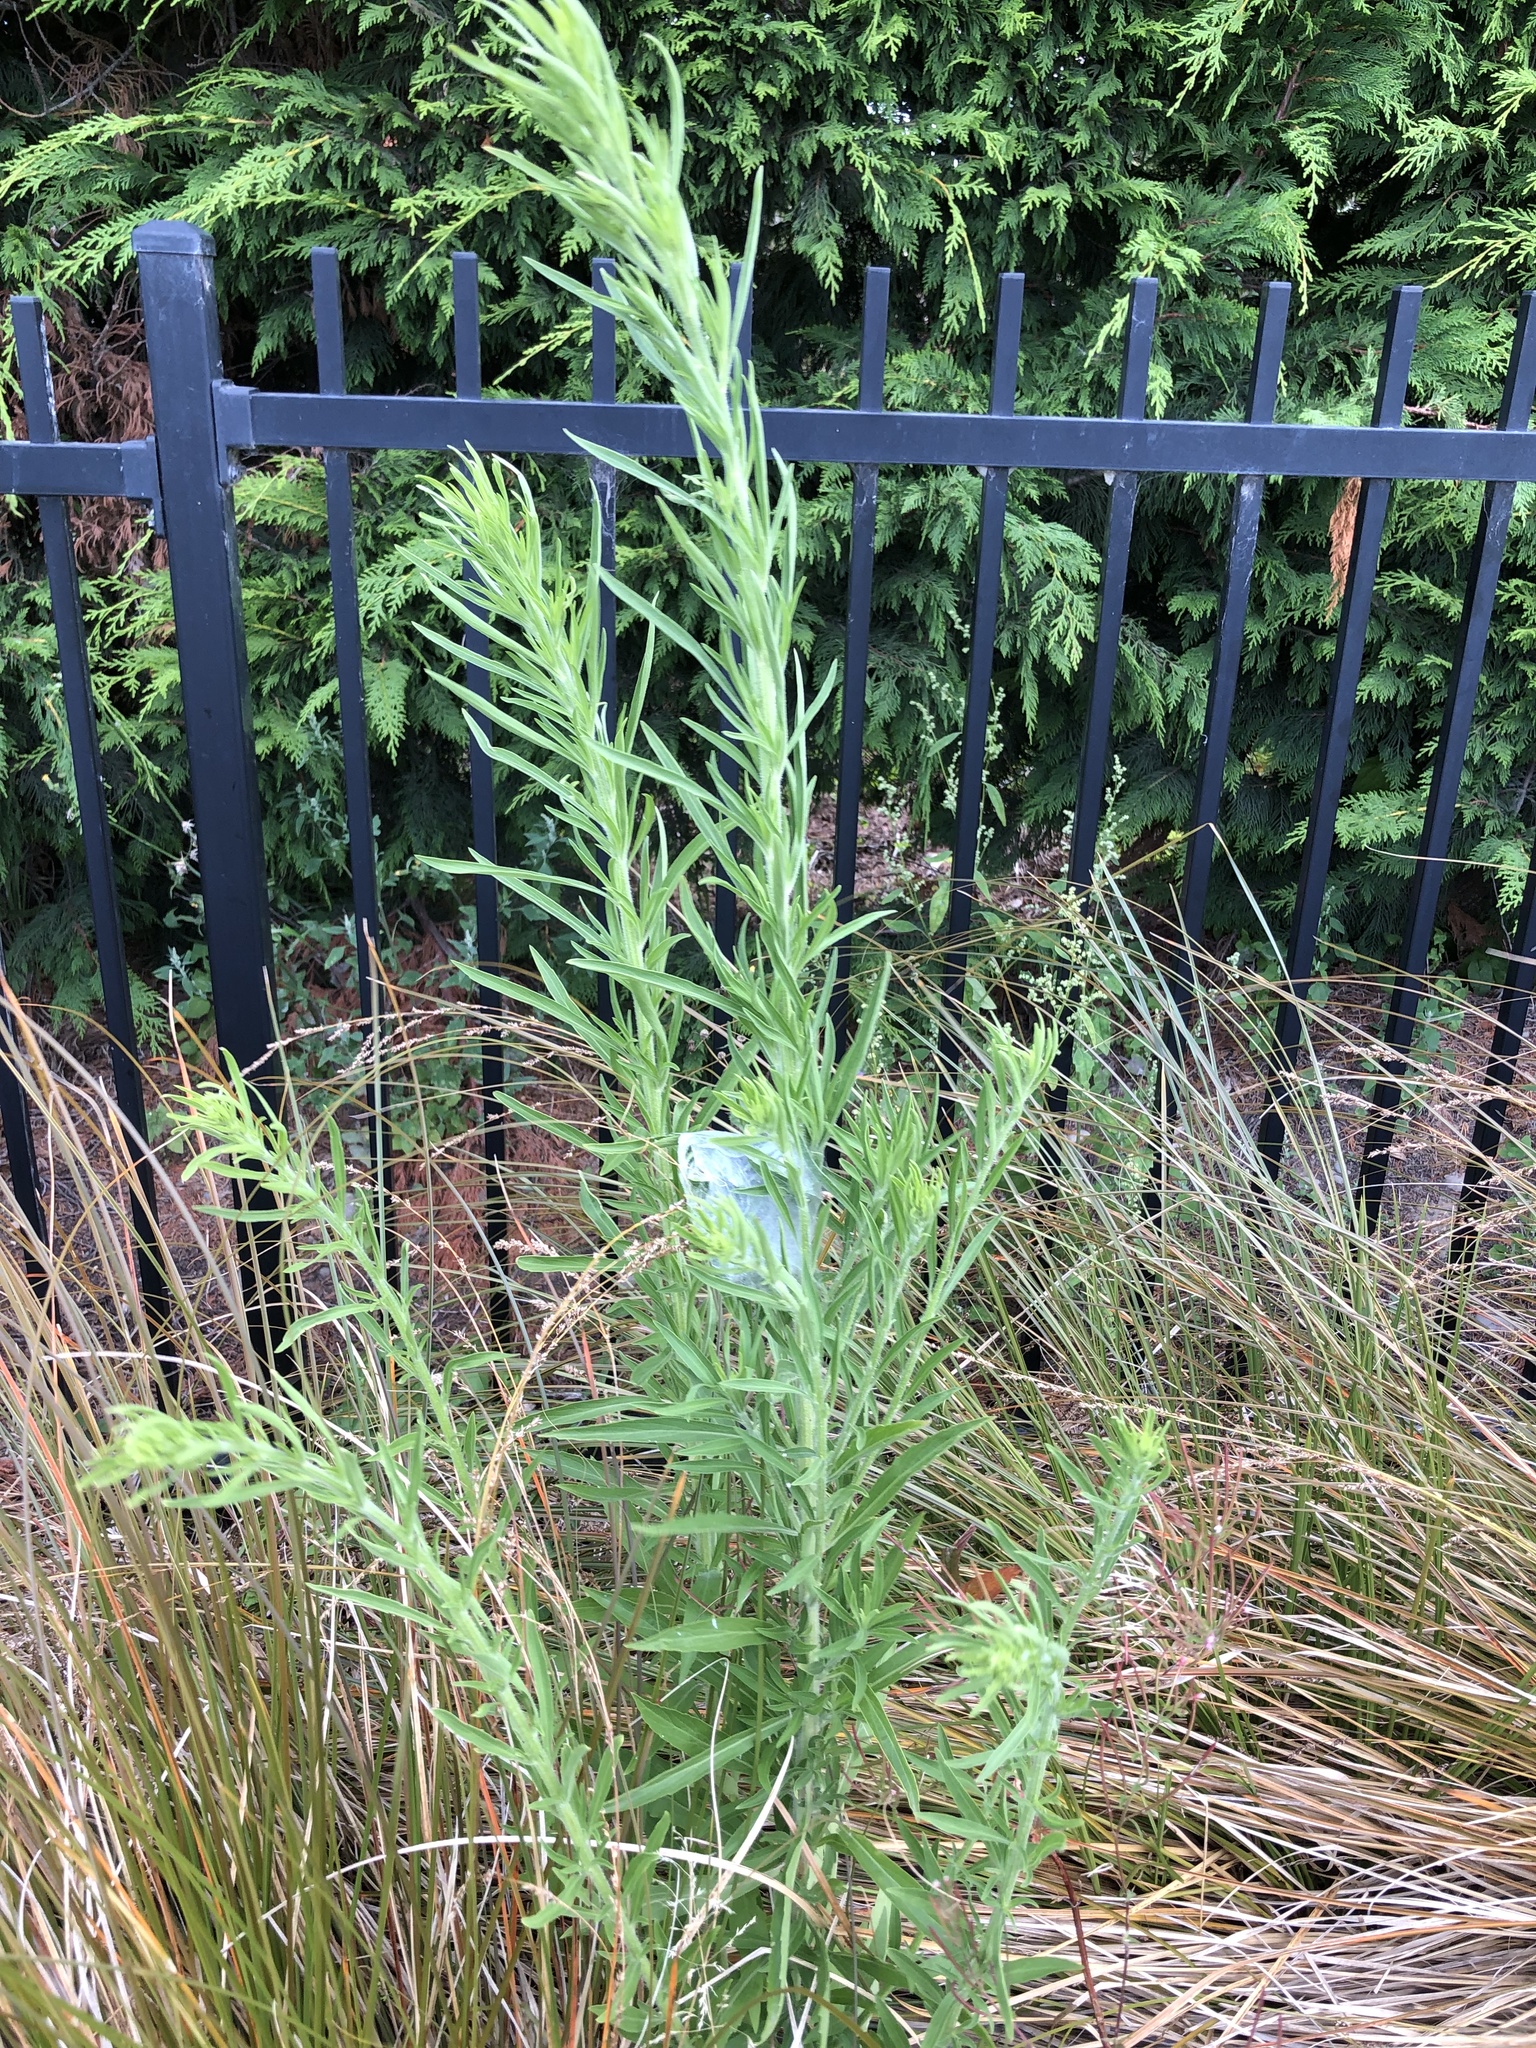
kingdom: Animalia
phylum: Arthropoda
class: Arachnida
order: Araneae
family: Pisauridae
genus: Dolomedes
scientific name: Dolomedes minor
